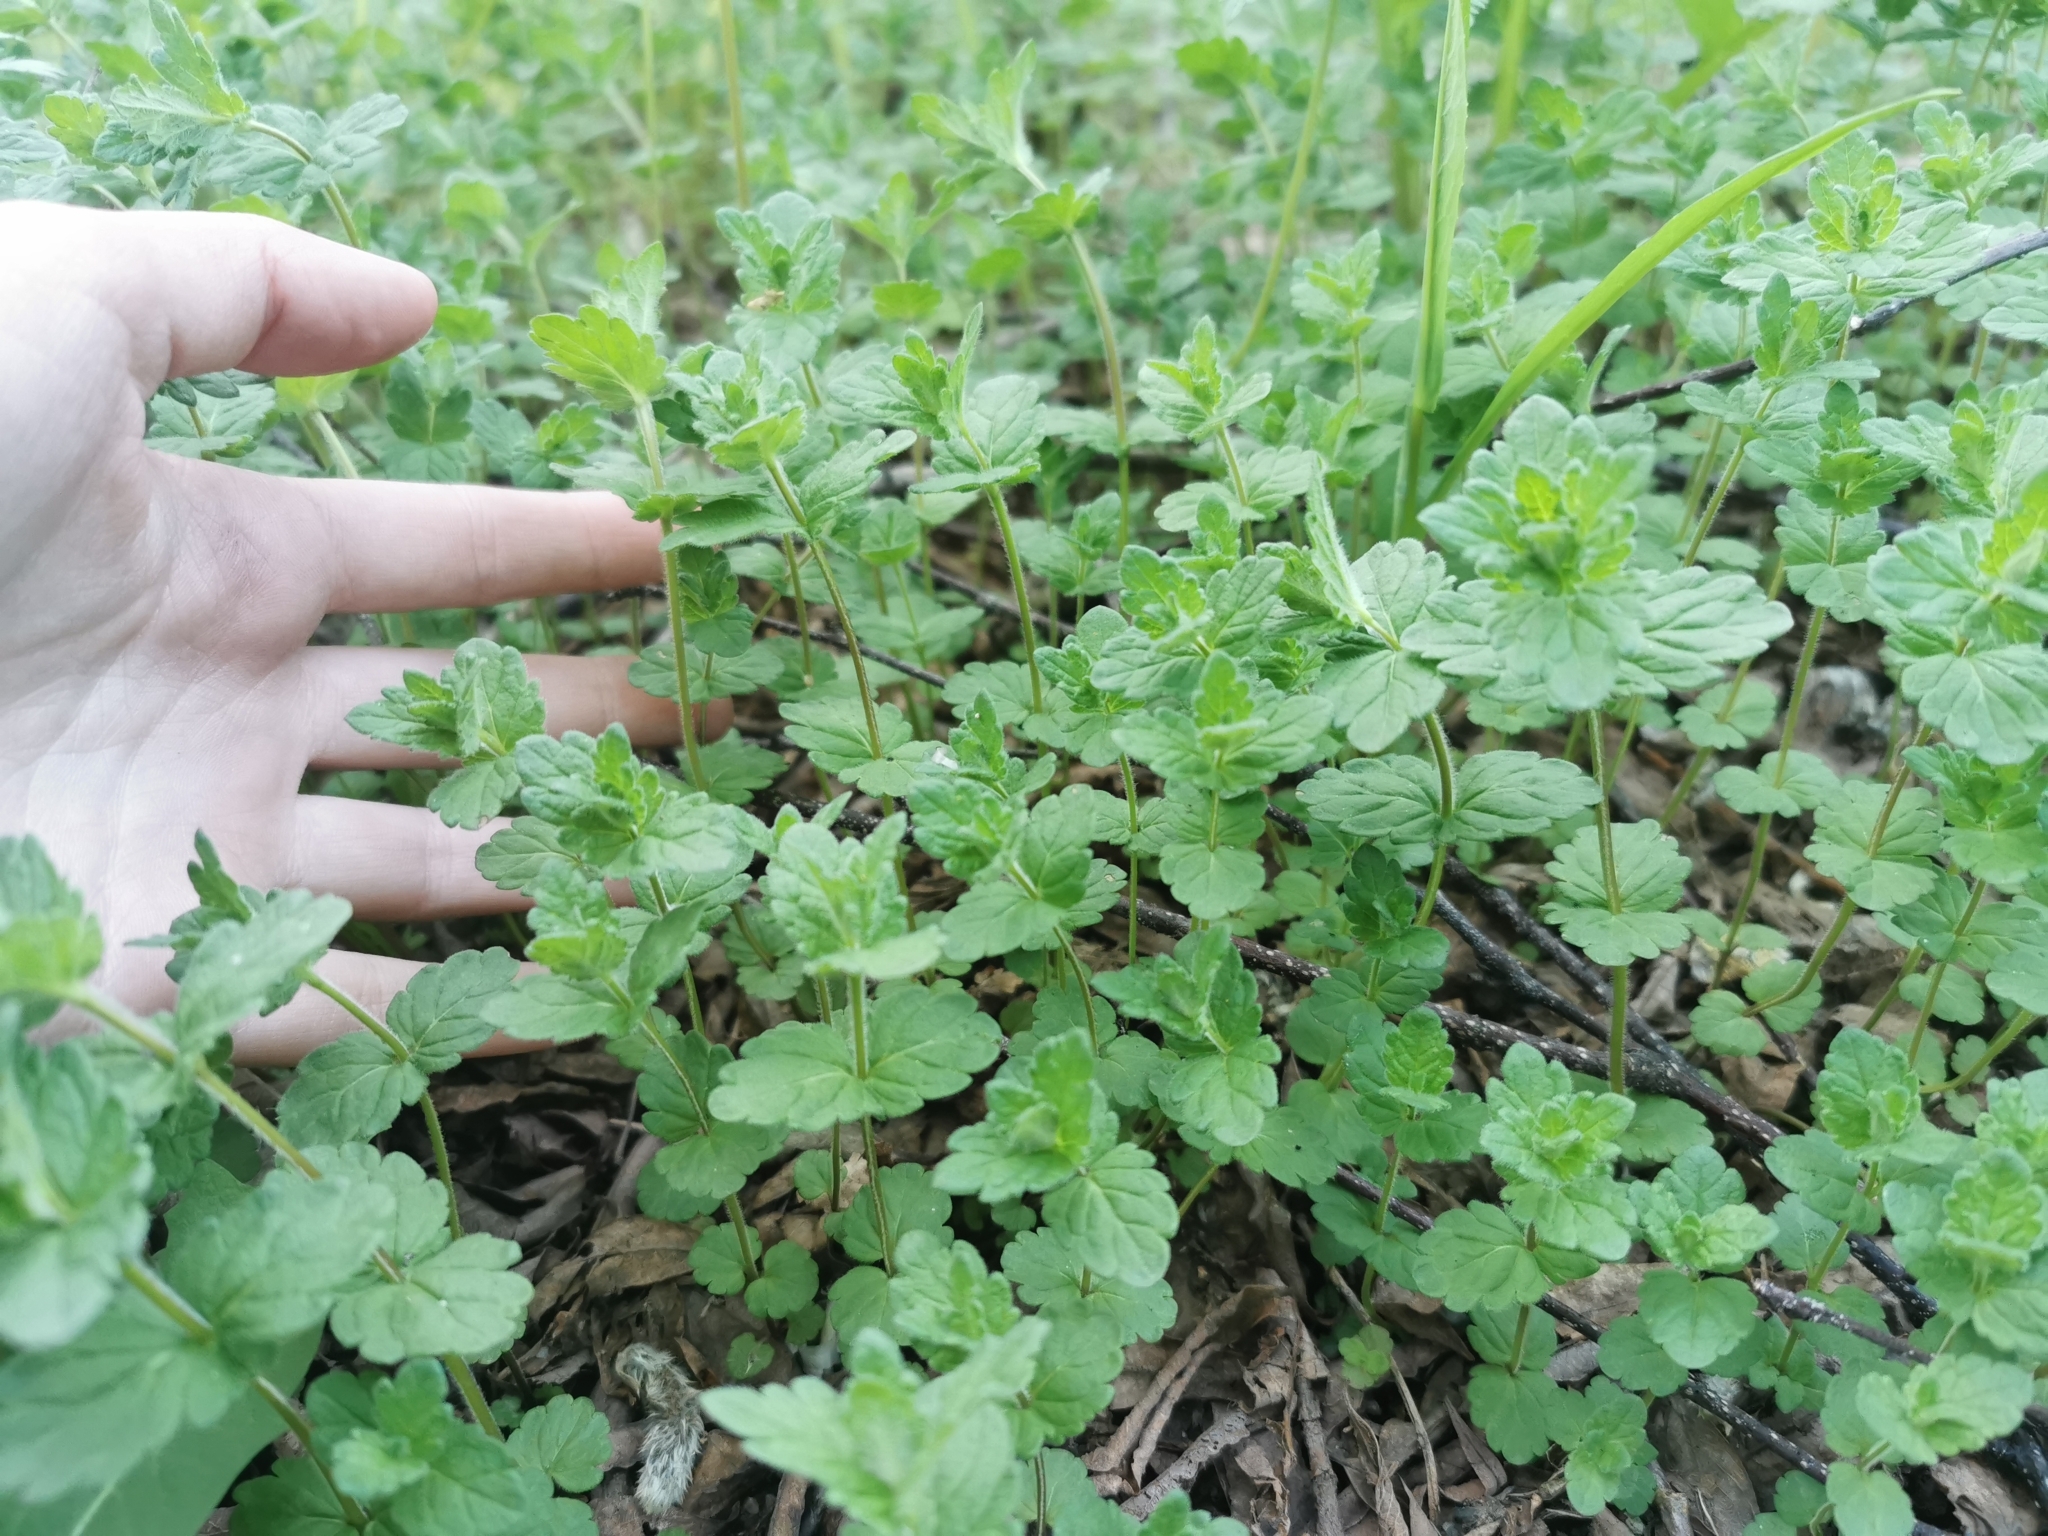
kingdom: Plantae
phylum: Tracheophyta
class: Magnoliopsida
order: Lamiales
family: Plantaginaceae
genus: Veronica
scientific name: Veronica chamaedrys
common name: Germander speedwell
